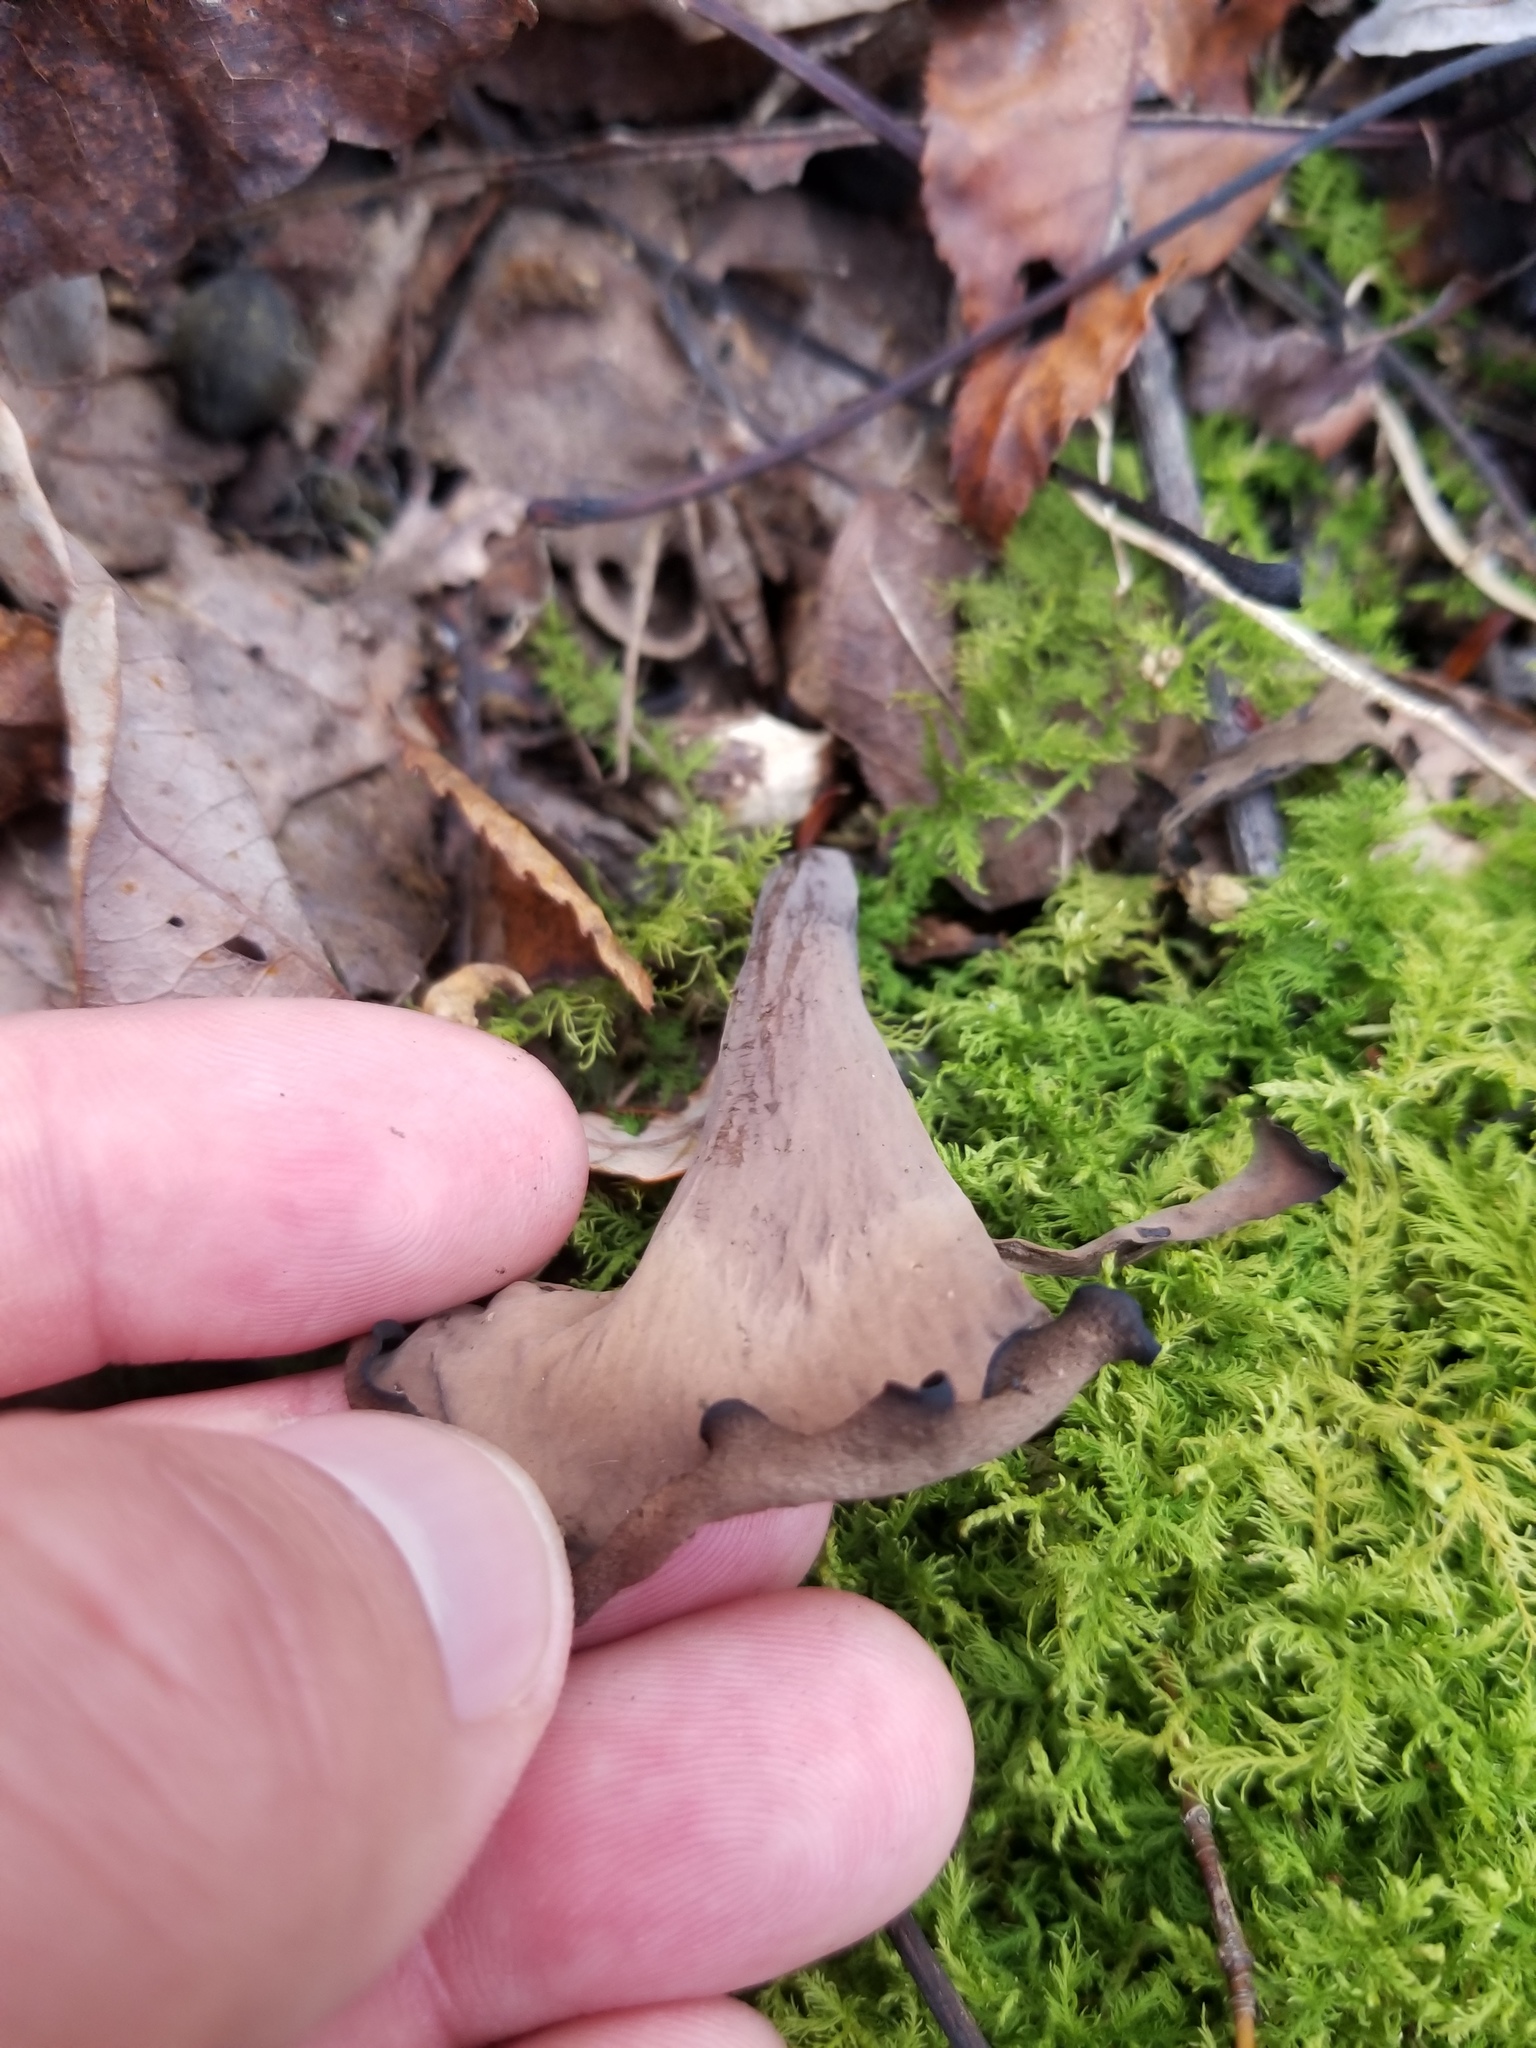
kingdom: Fungi
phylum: Basidiomycota
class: Agaricomycetes
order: Cantharellales
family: Hydnaceae
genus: Craterellus
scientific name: Craterellus cornucopioides
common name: Horn of plenty
